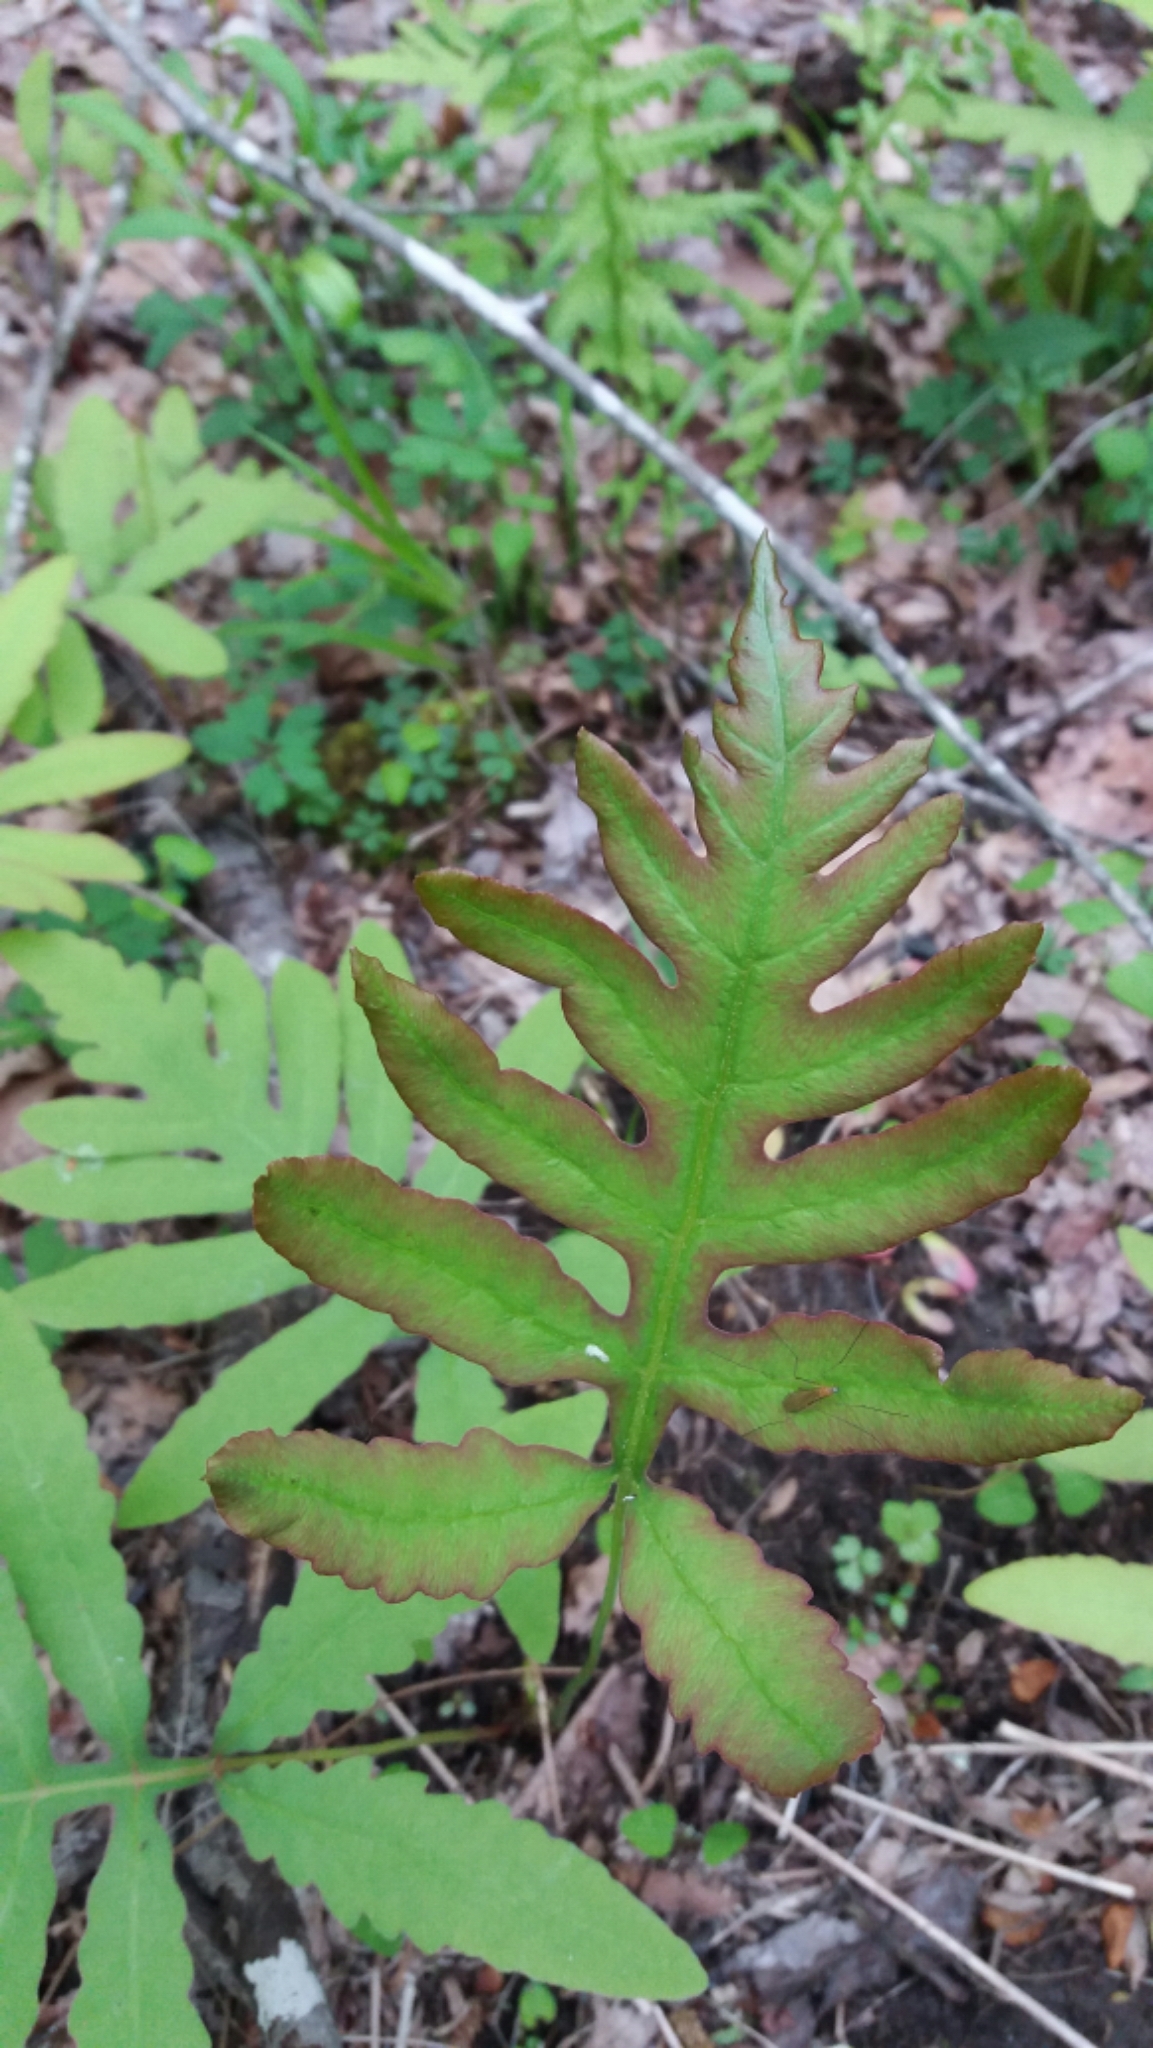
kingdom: Plantae
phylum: Tracheophyta
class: Polypodiopsida
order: Polypodiales
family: Onocleaceae
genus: Onoclea
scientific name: Onoclea sensibilis
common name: Sensitive fern
